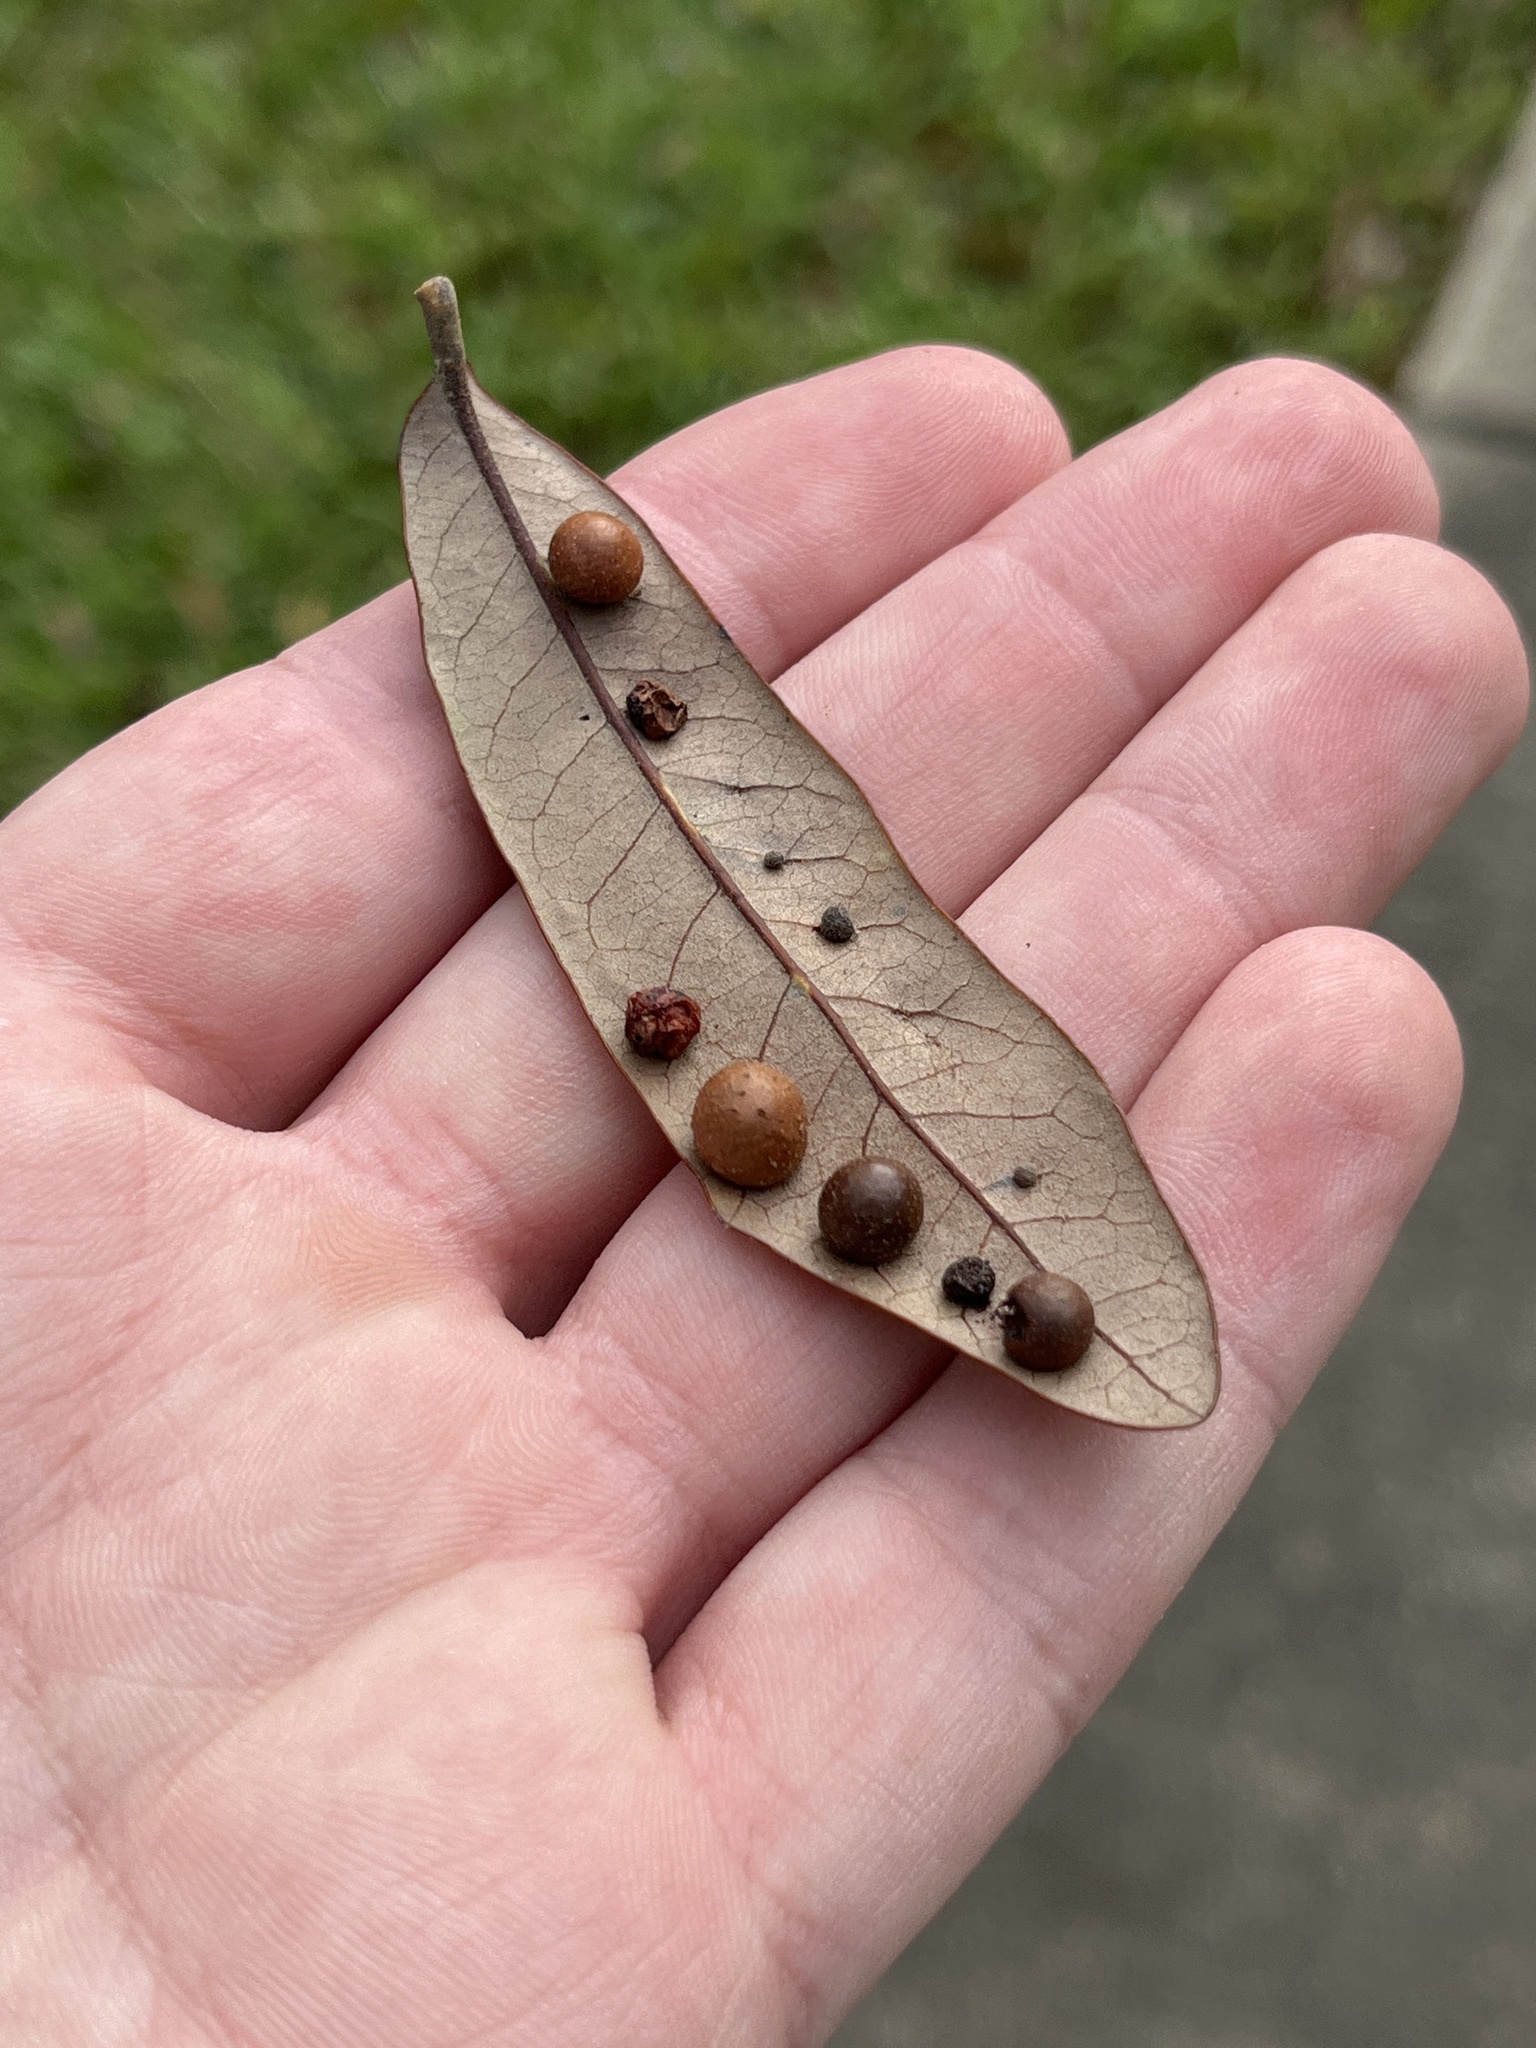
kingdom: Animalia
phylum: Arthropoda
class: Insecta
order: Hymenoptera
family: Cynipidae
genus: Belonocnema
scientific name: Belonocnema kinseyi
